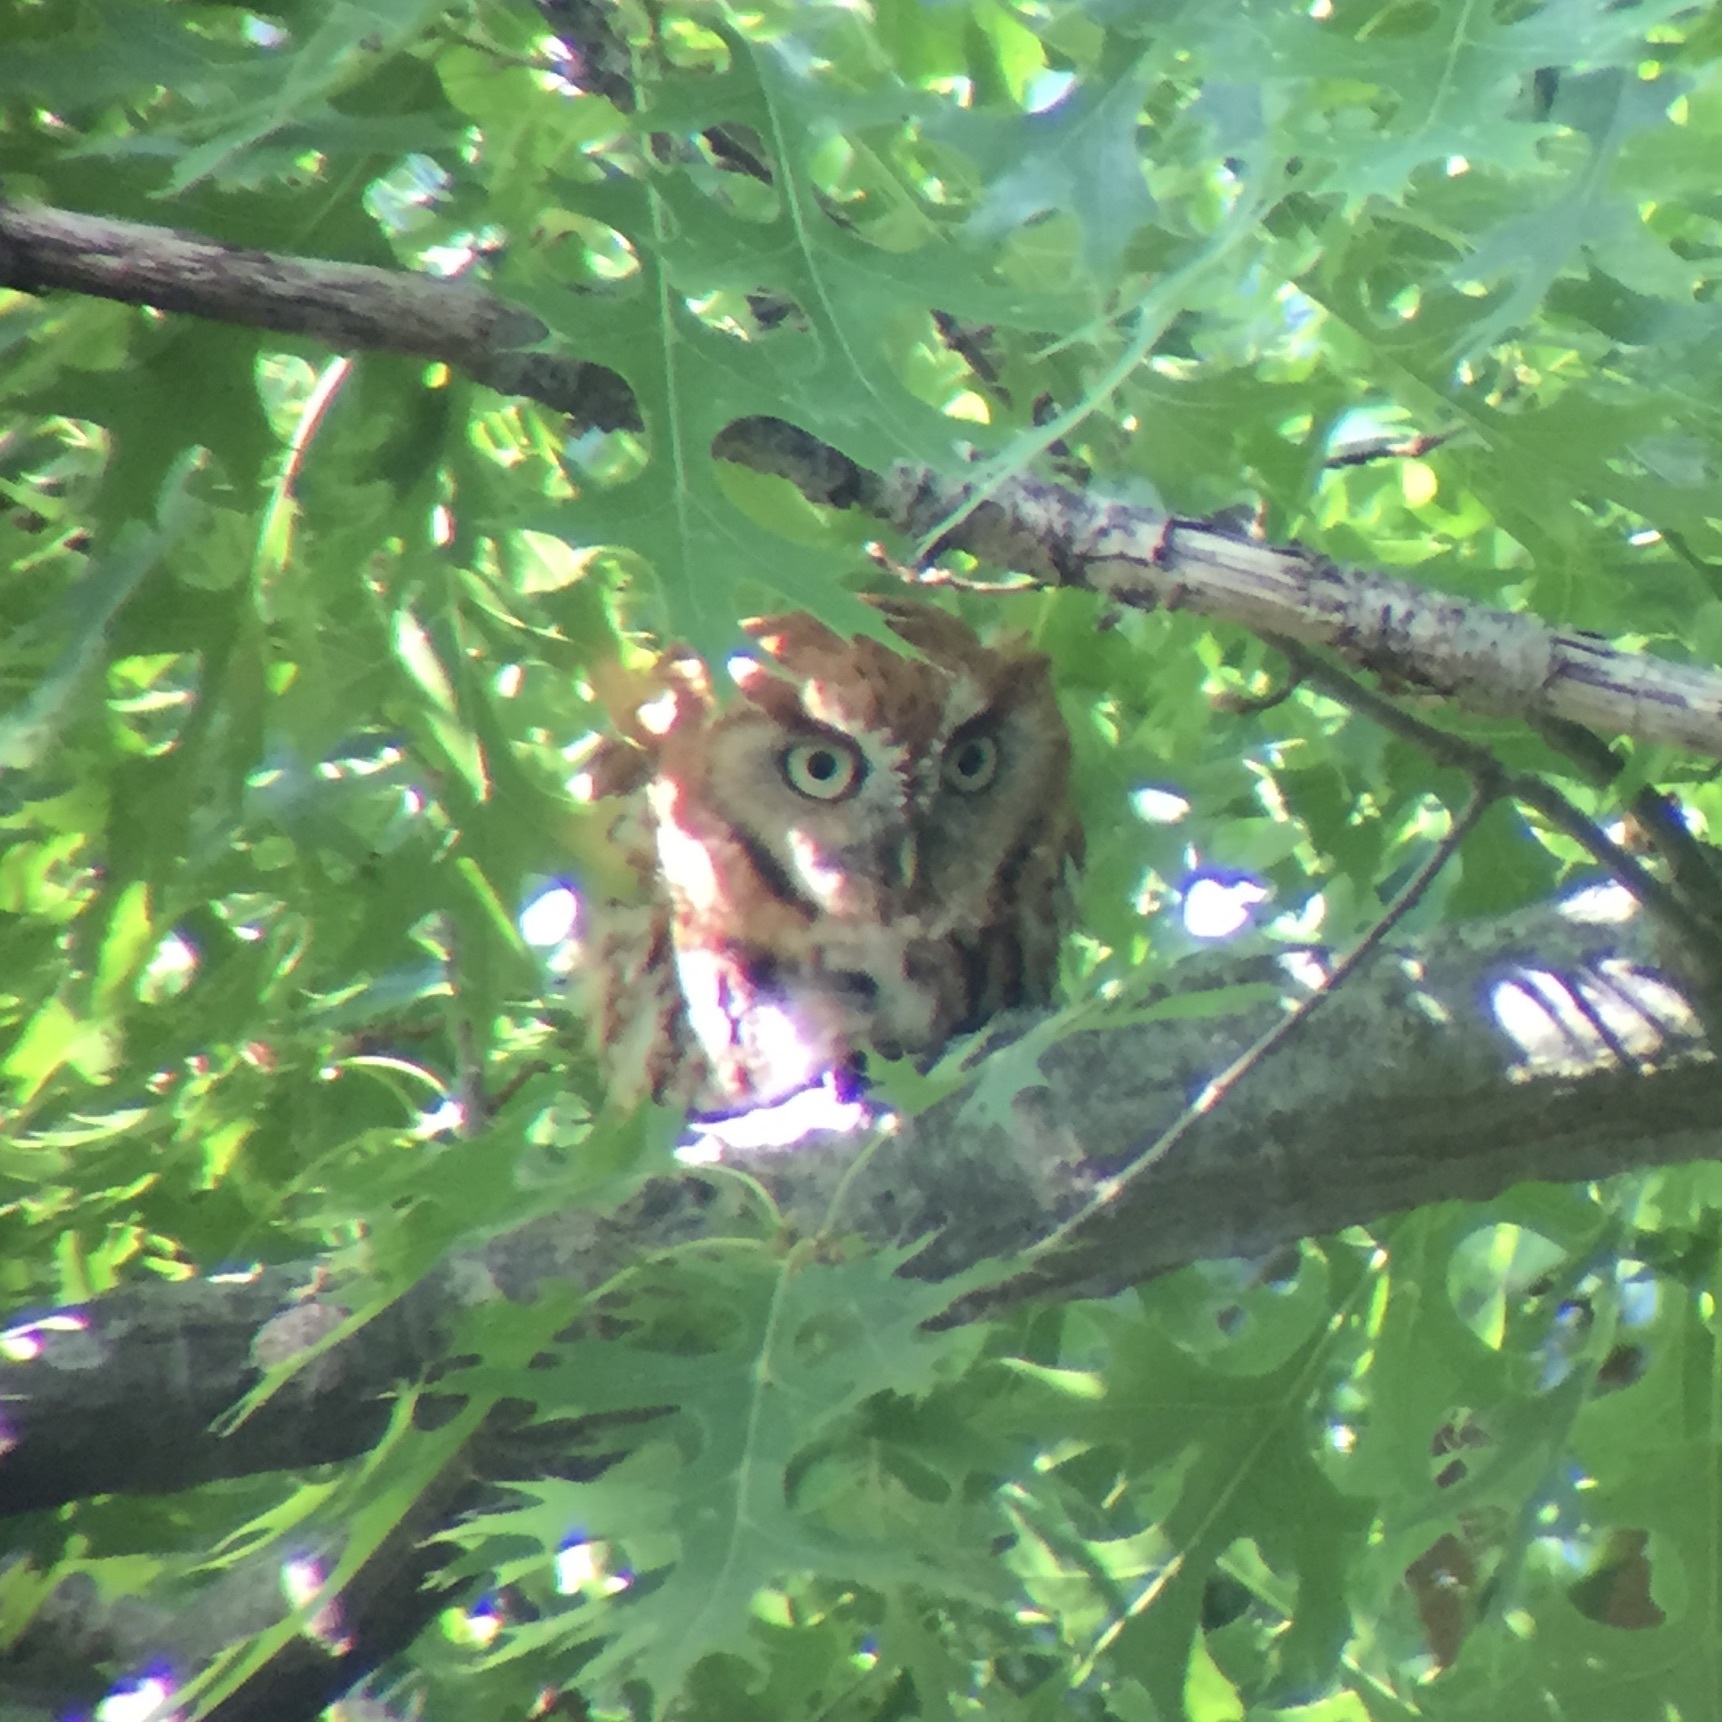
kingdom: Animalia
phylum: Chordata
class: Aves
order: Strigiformes
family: Strigidae
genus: Megascops
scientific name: Megascops asio
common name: Eastern screech-owl
